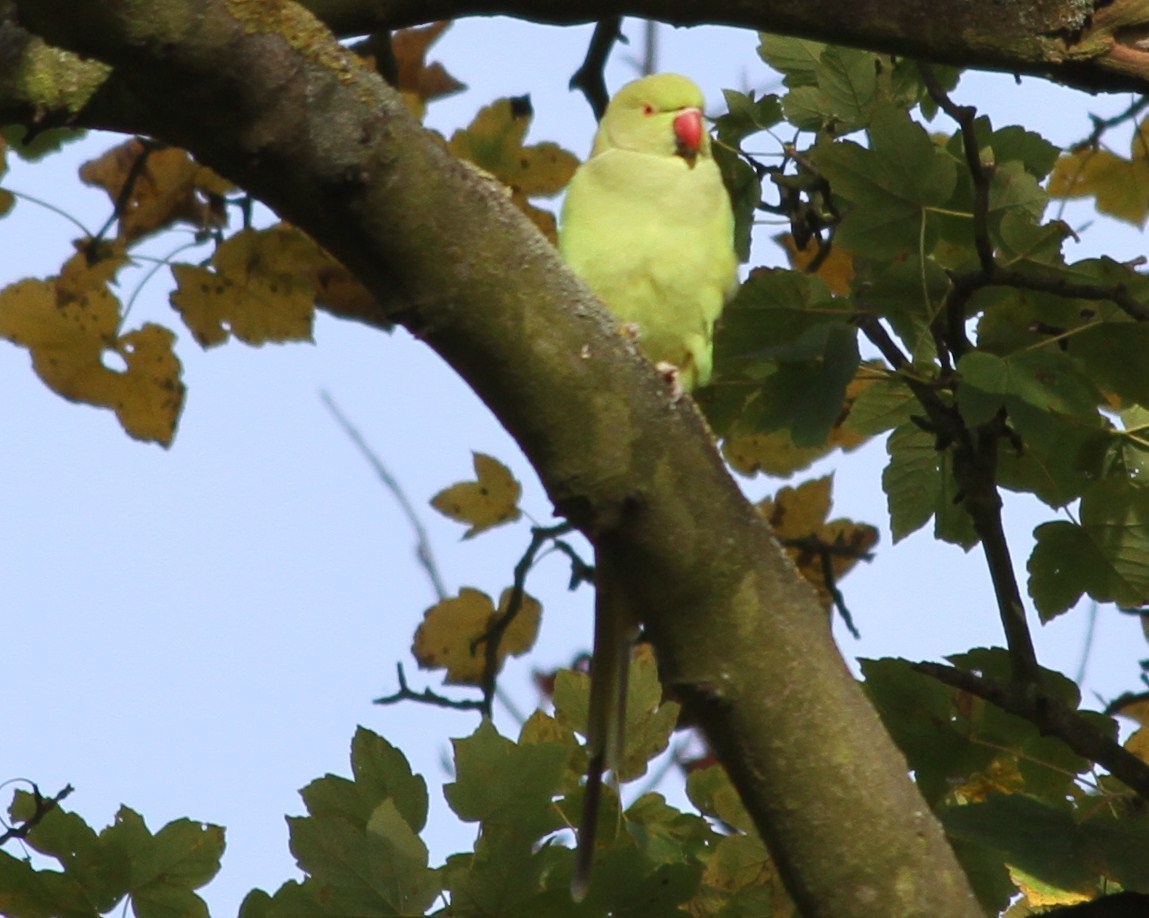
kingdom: Animalia
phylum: Chordata
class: Aves
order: Psittaciformes
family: Psittacidae
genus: Psittacula
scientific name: Psittacula krameri
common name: Rose-ringed parakeet
